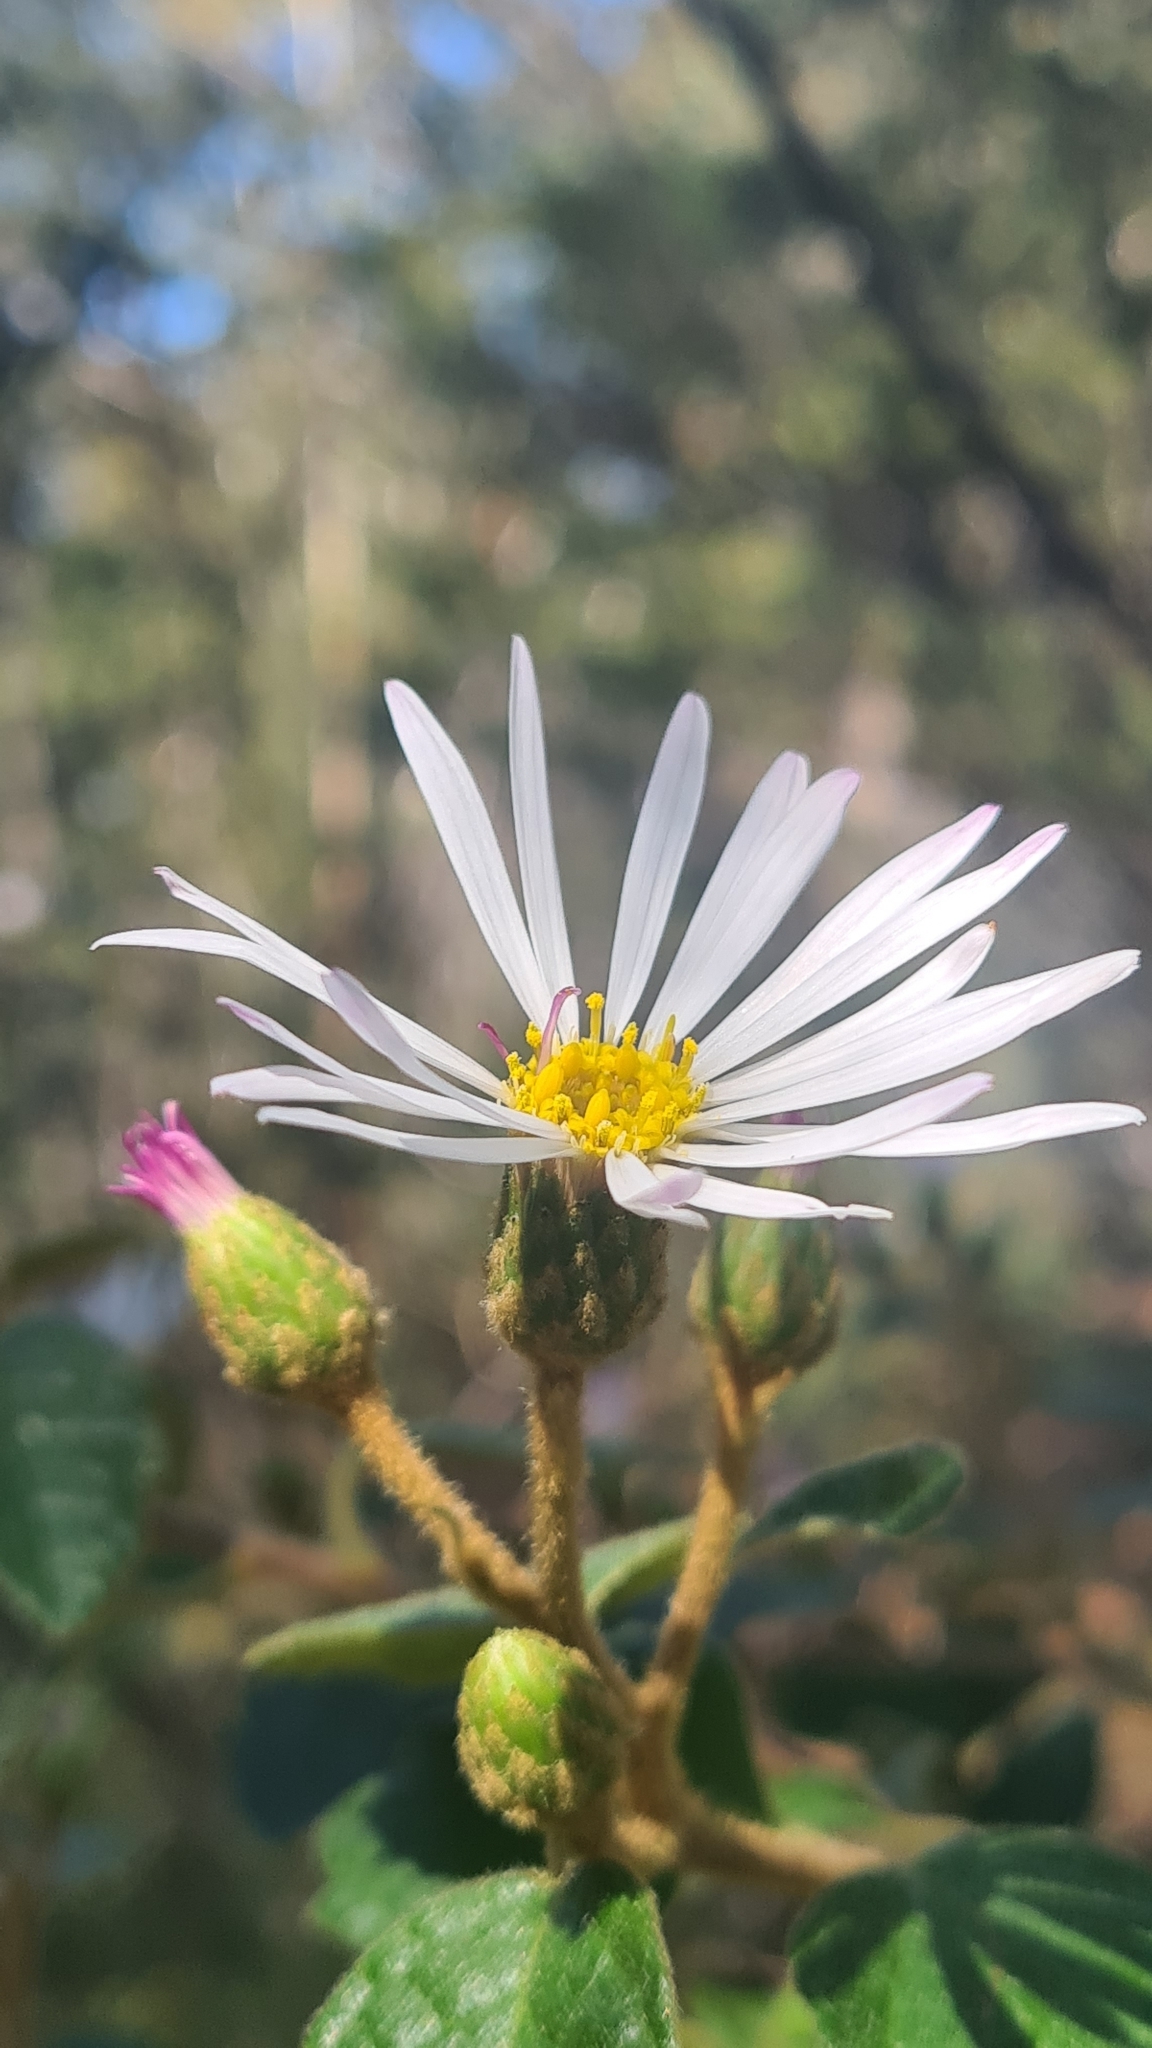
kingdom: Plantae
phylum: Tracheophyta
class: Magnoliopsida
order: Asterales
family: Asteraceae
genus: Olearia
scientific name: Olearia tomentosa
